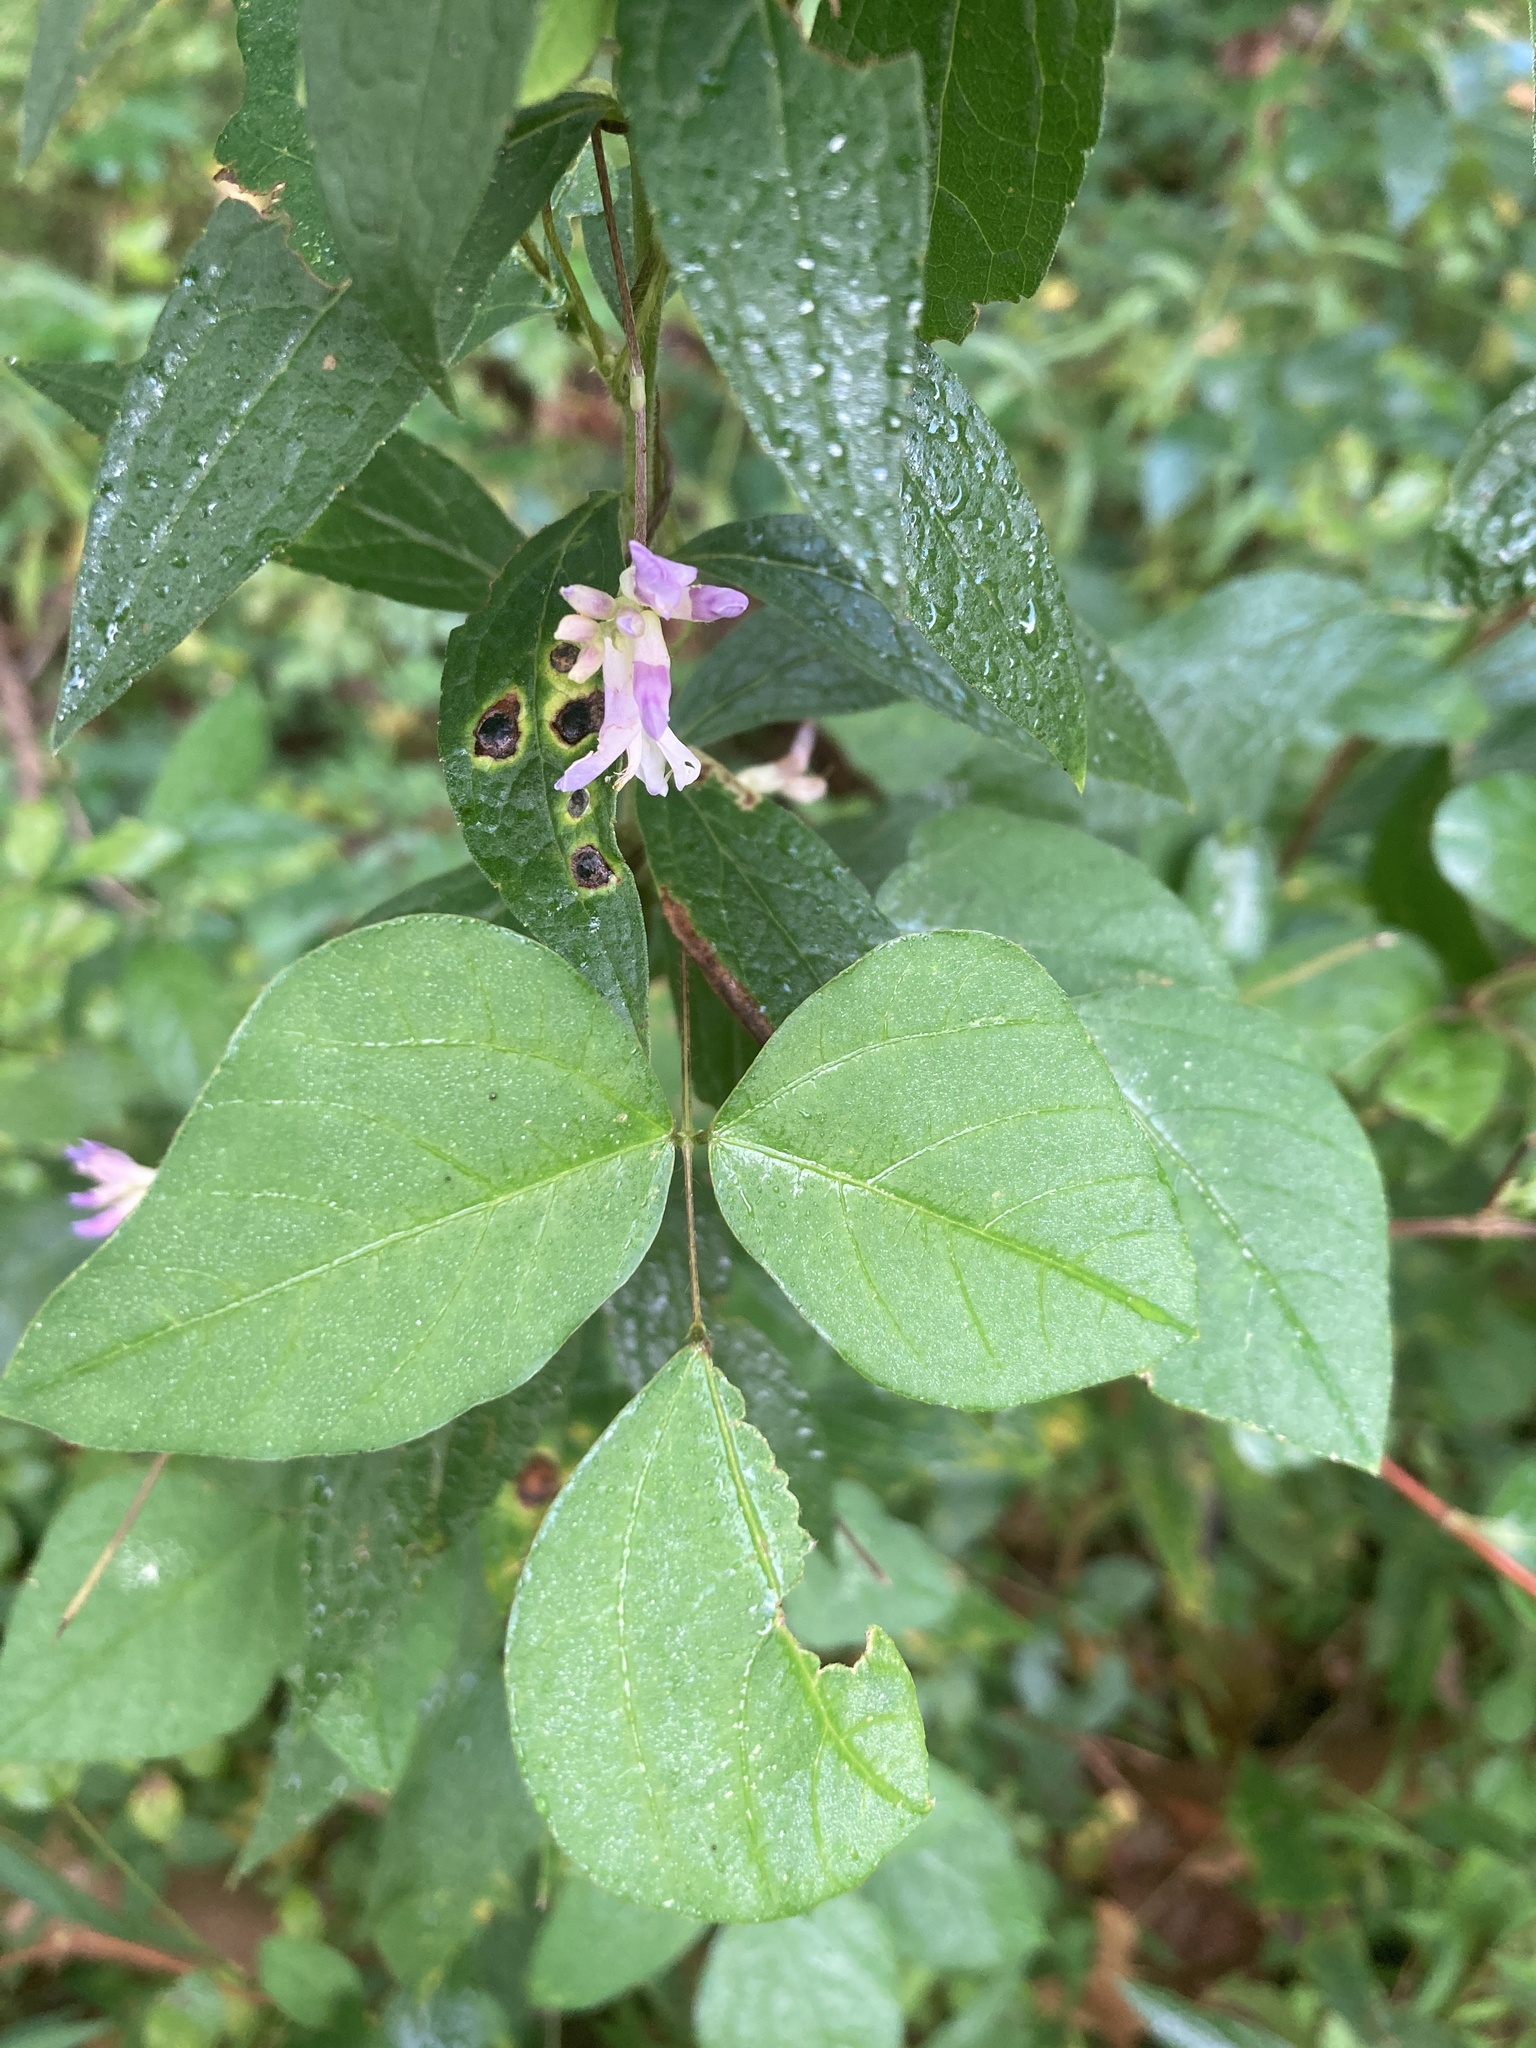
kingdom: Plantae
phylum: Tracheophyta
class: Magnoliopsida
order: Fabales
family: Fabaceae
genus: Amphicarpaea
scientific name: Amphicarpaea bracteata
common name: American hog peanut
